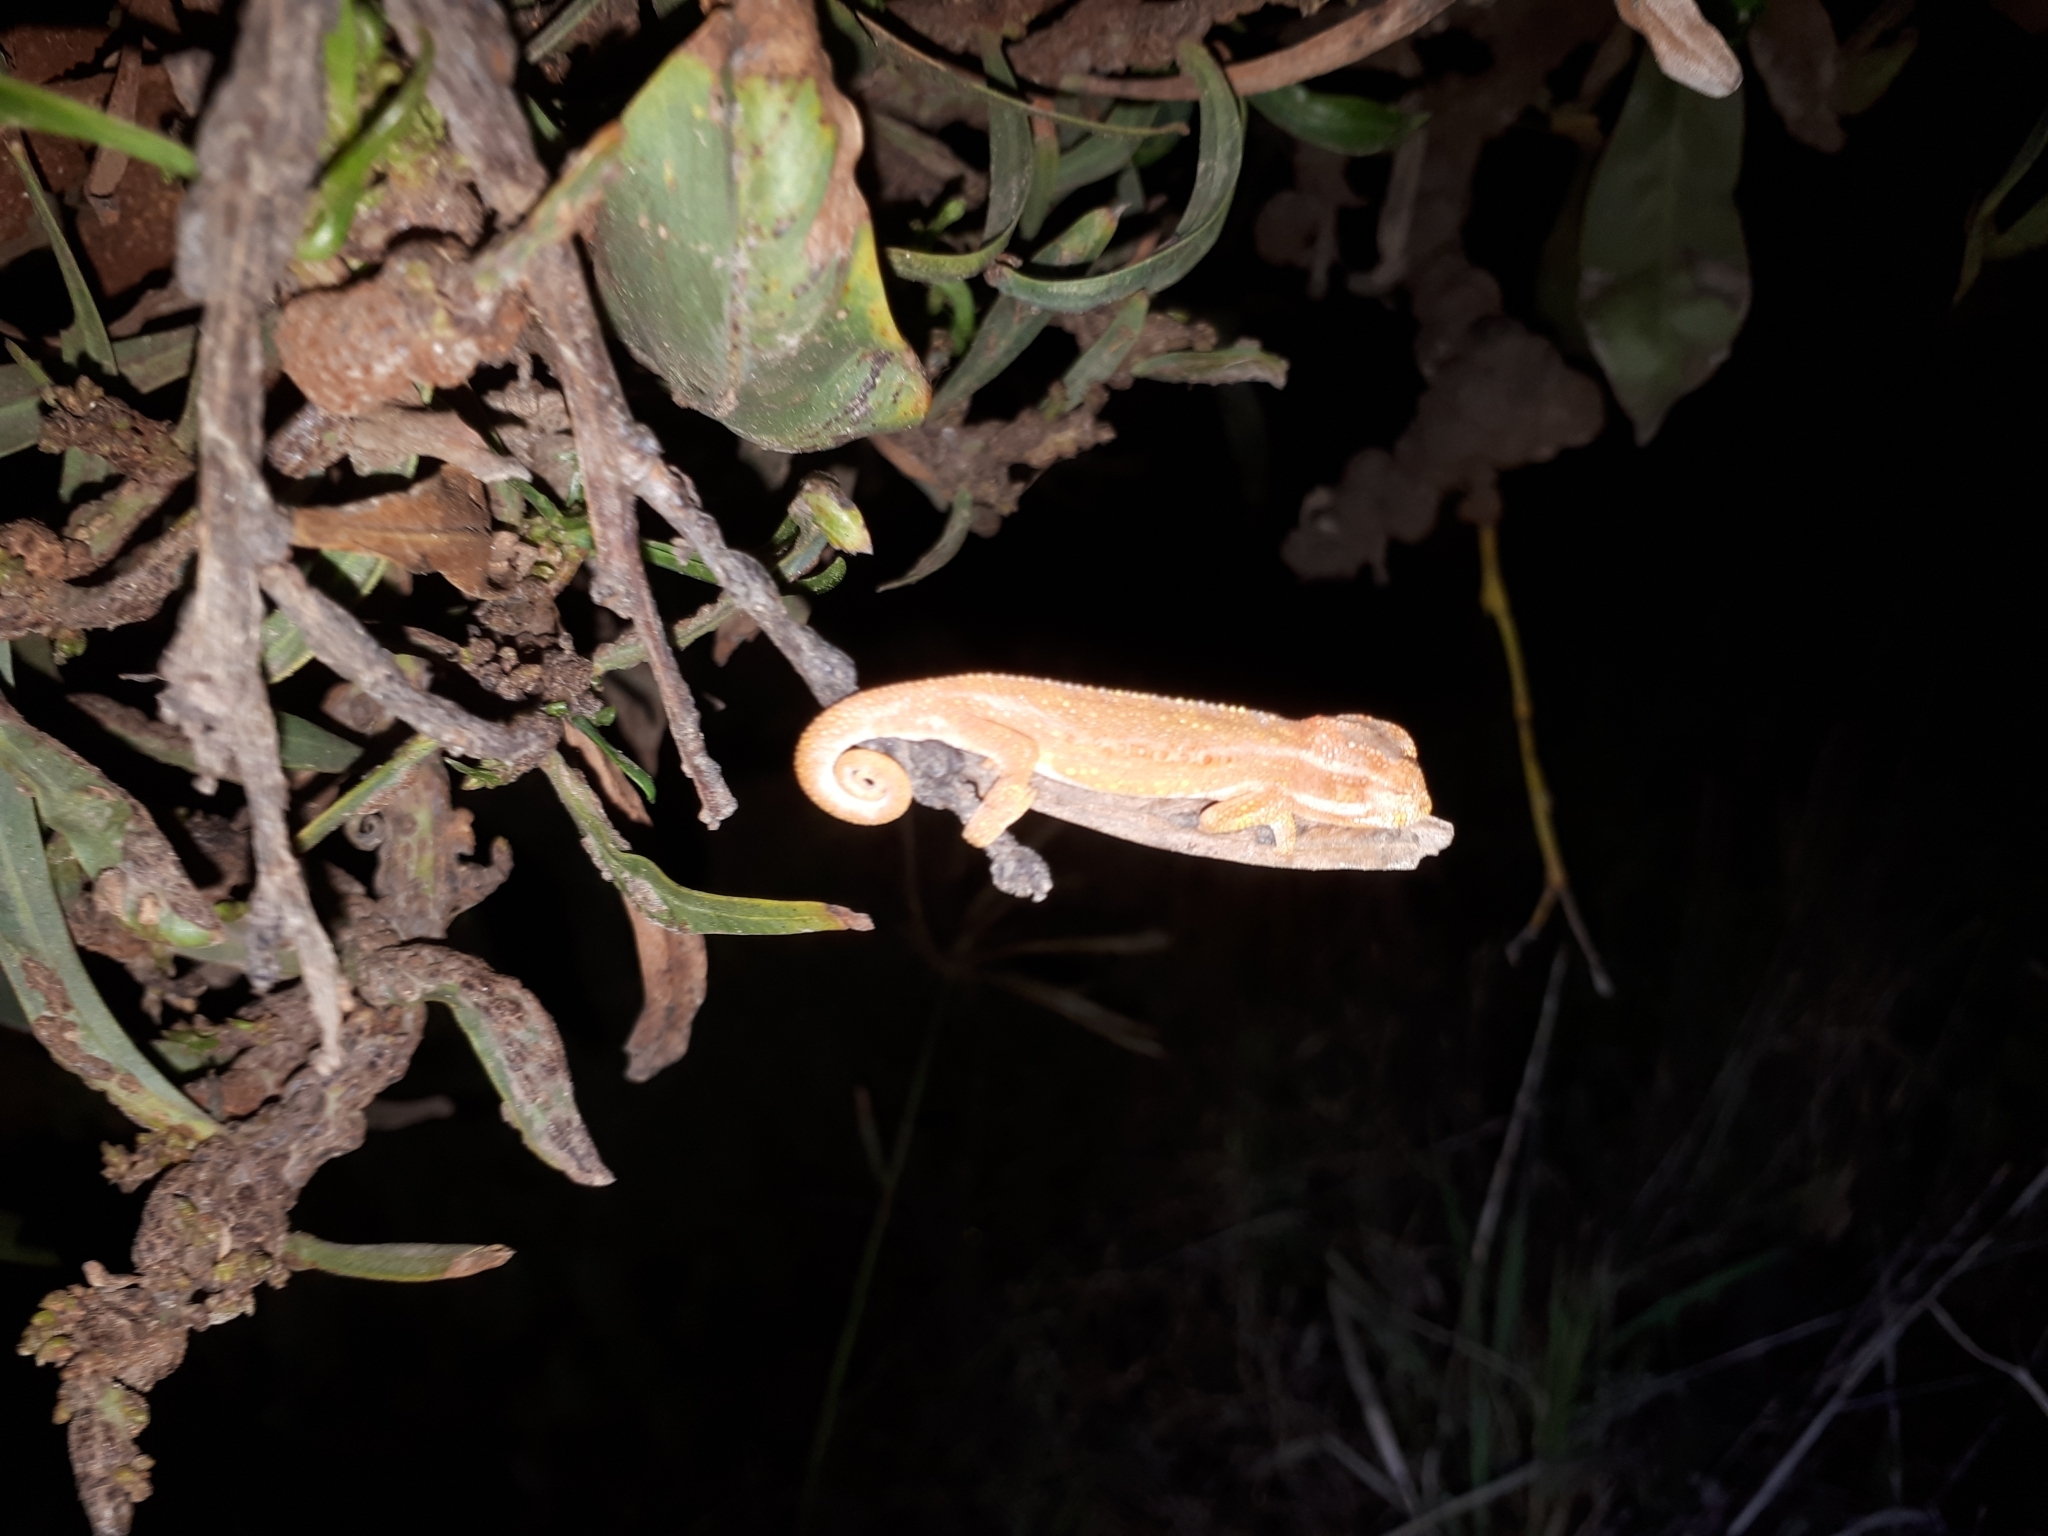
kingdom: Animalia
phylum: Chordata
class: Squamata
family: Chamaeleonidae
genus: Bradypodion
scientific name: Bradypodion pumilum
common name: Cape dwarf chameleon
